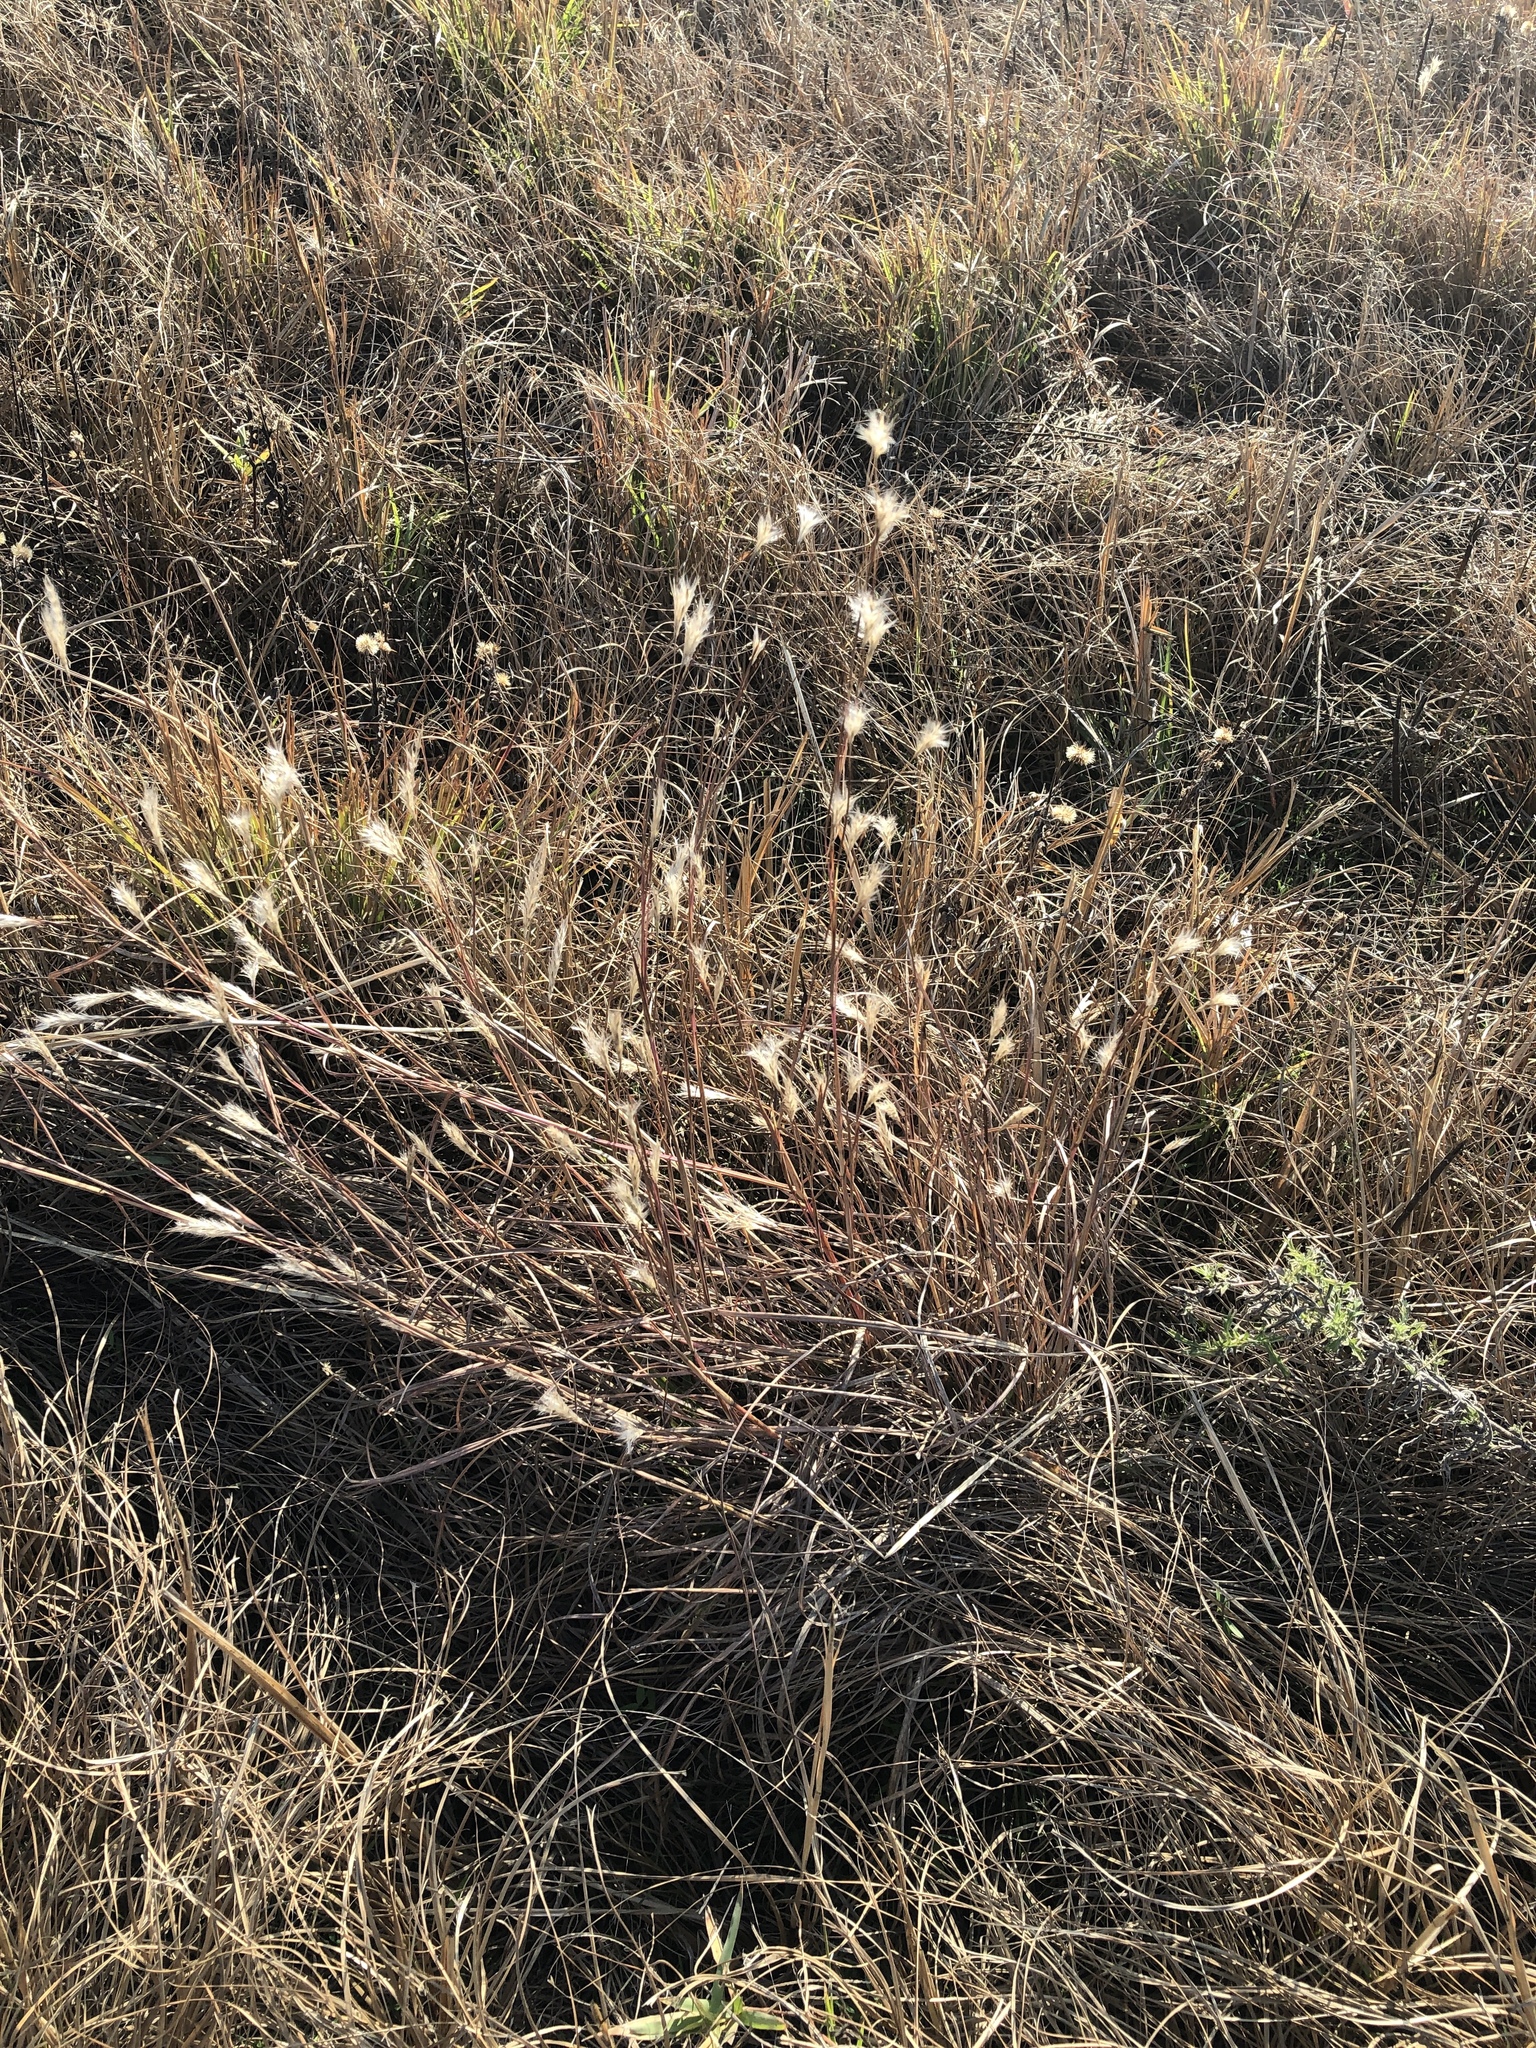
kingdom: Plantae
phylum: Tracheophyta
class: Liliopsida
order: Poales
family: Poaceae
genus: Andropogon
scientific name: Andropogon ternarius
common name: Split bluestem
